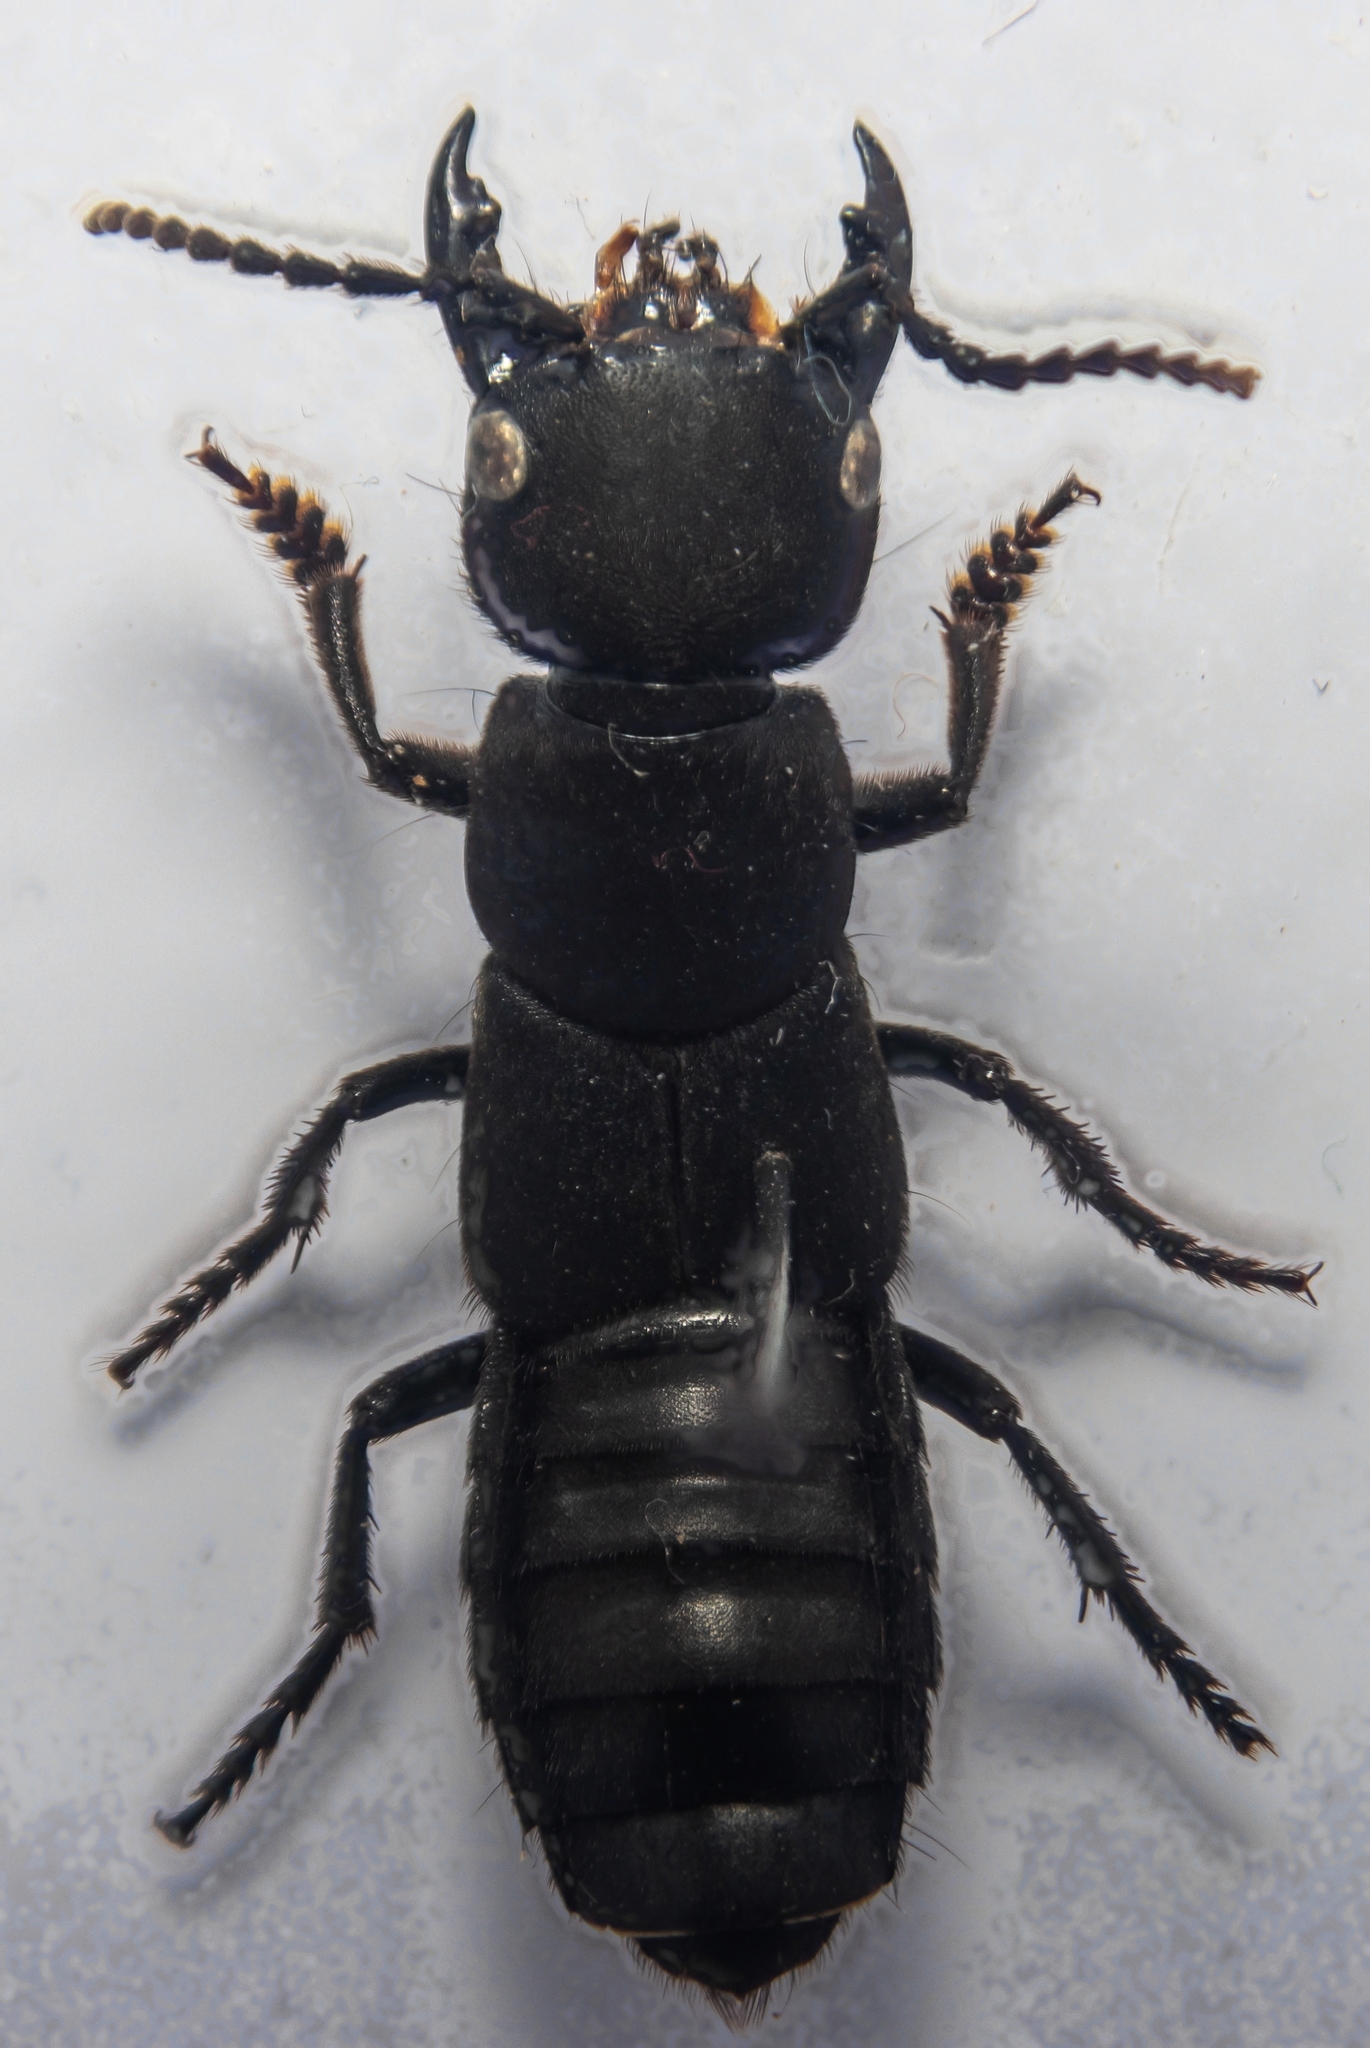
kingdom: Animalia
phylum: Arthropoda
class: Insecta
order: Coleoptera
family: Staphylinidae
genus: Ocypus
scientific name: Ocypus olens
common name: Devil's coach-horse
